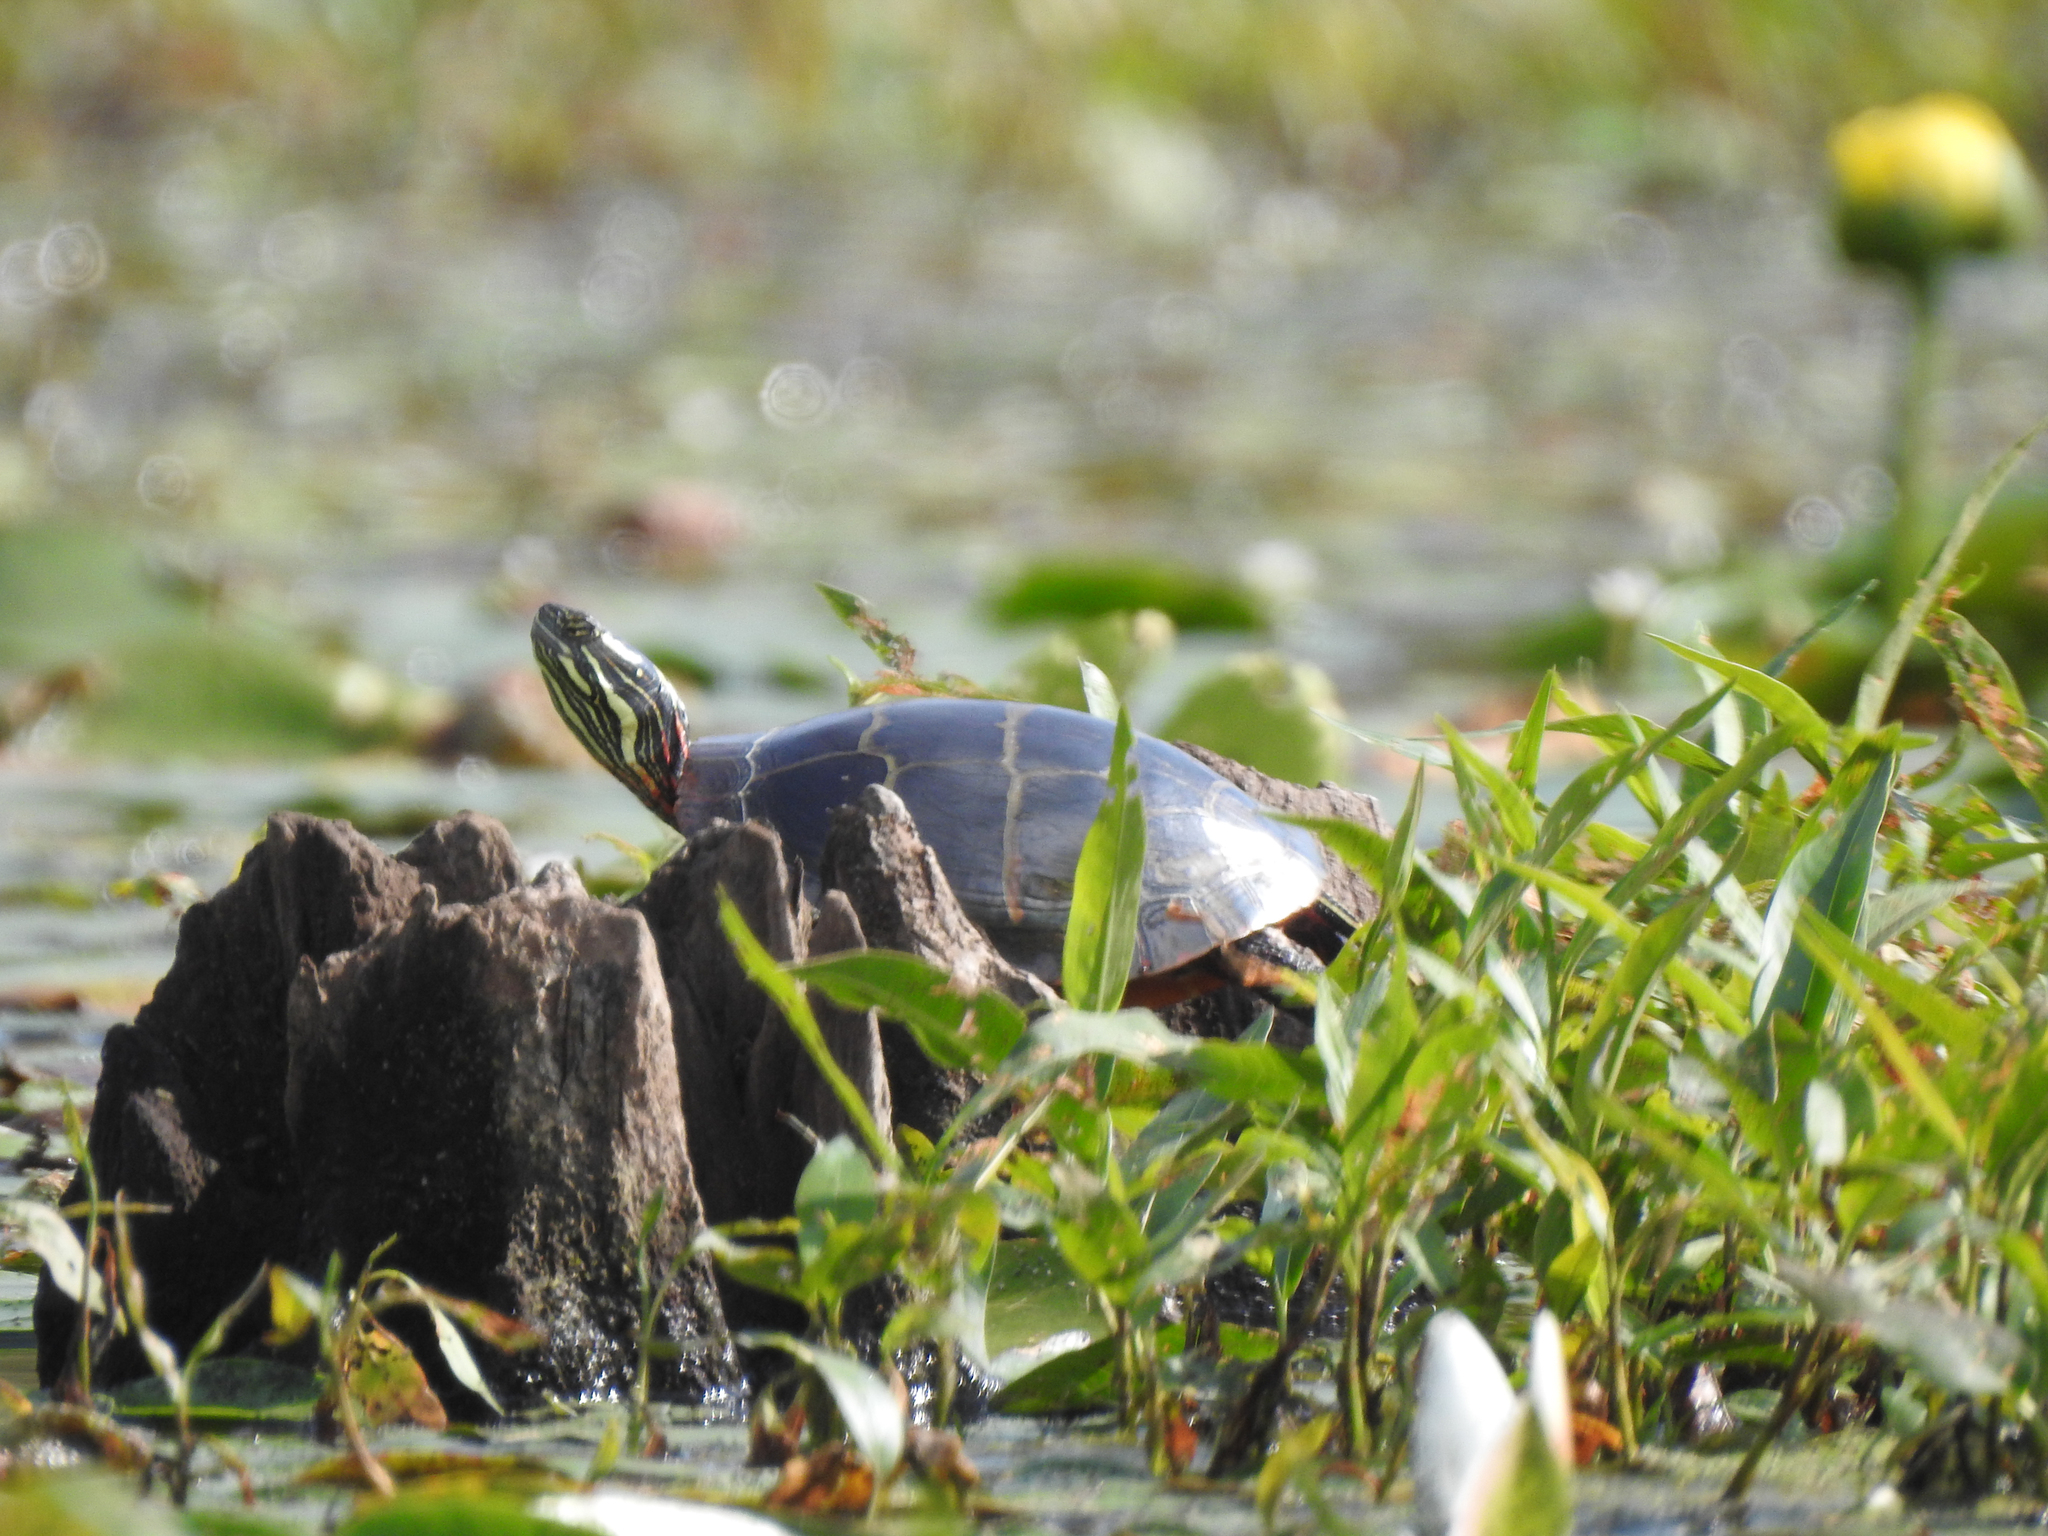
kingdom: Animalia
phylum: Chordata
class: Testudines
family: Emydidae
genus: Chrysemys
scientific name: Chrysemys picta
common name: Painted turtle
